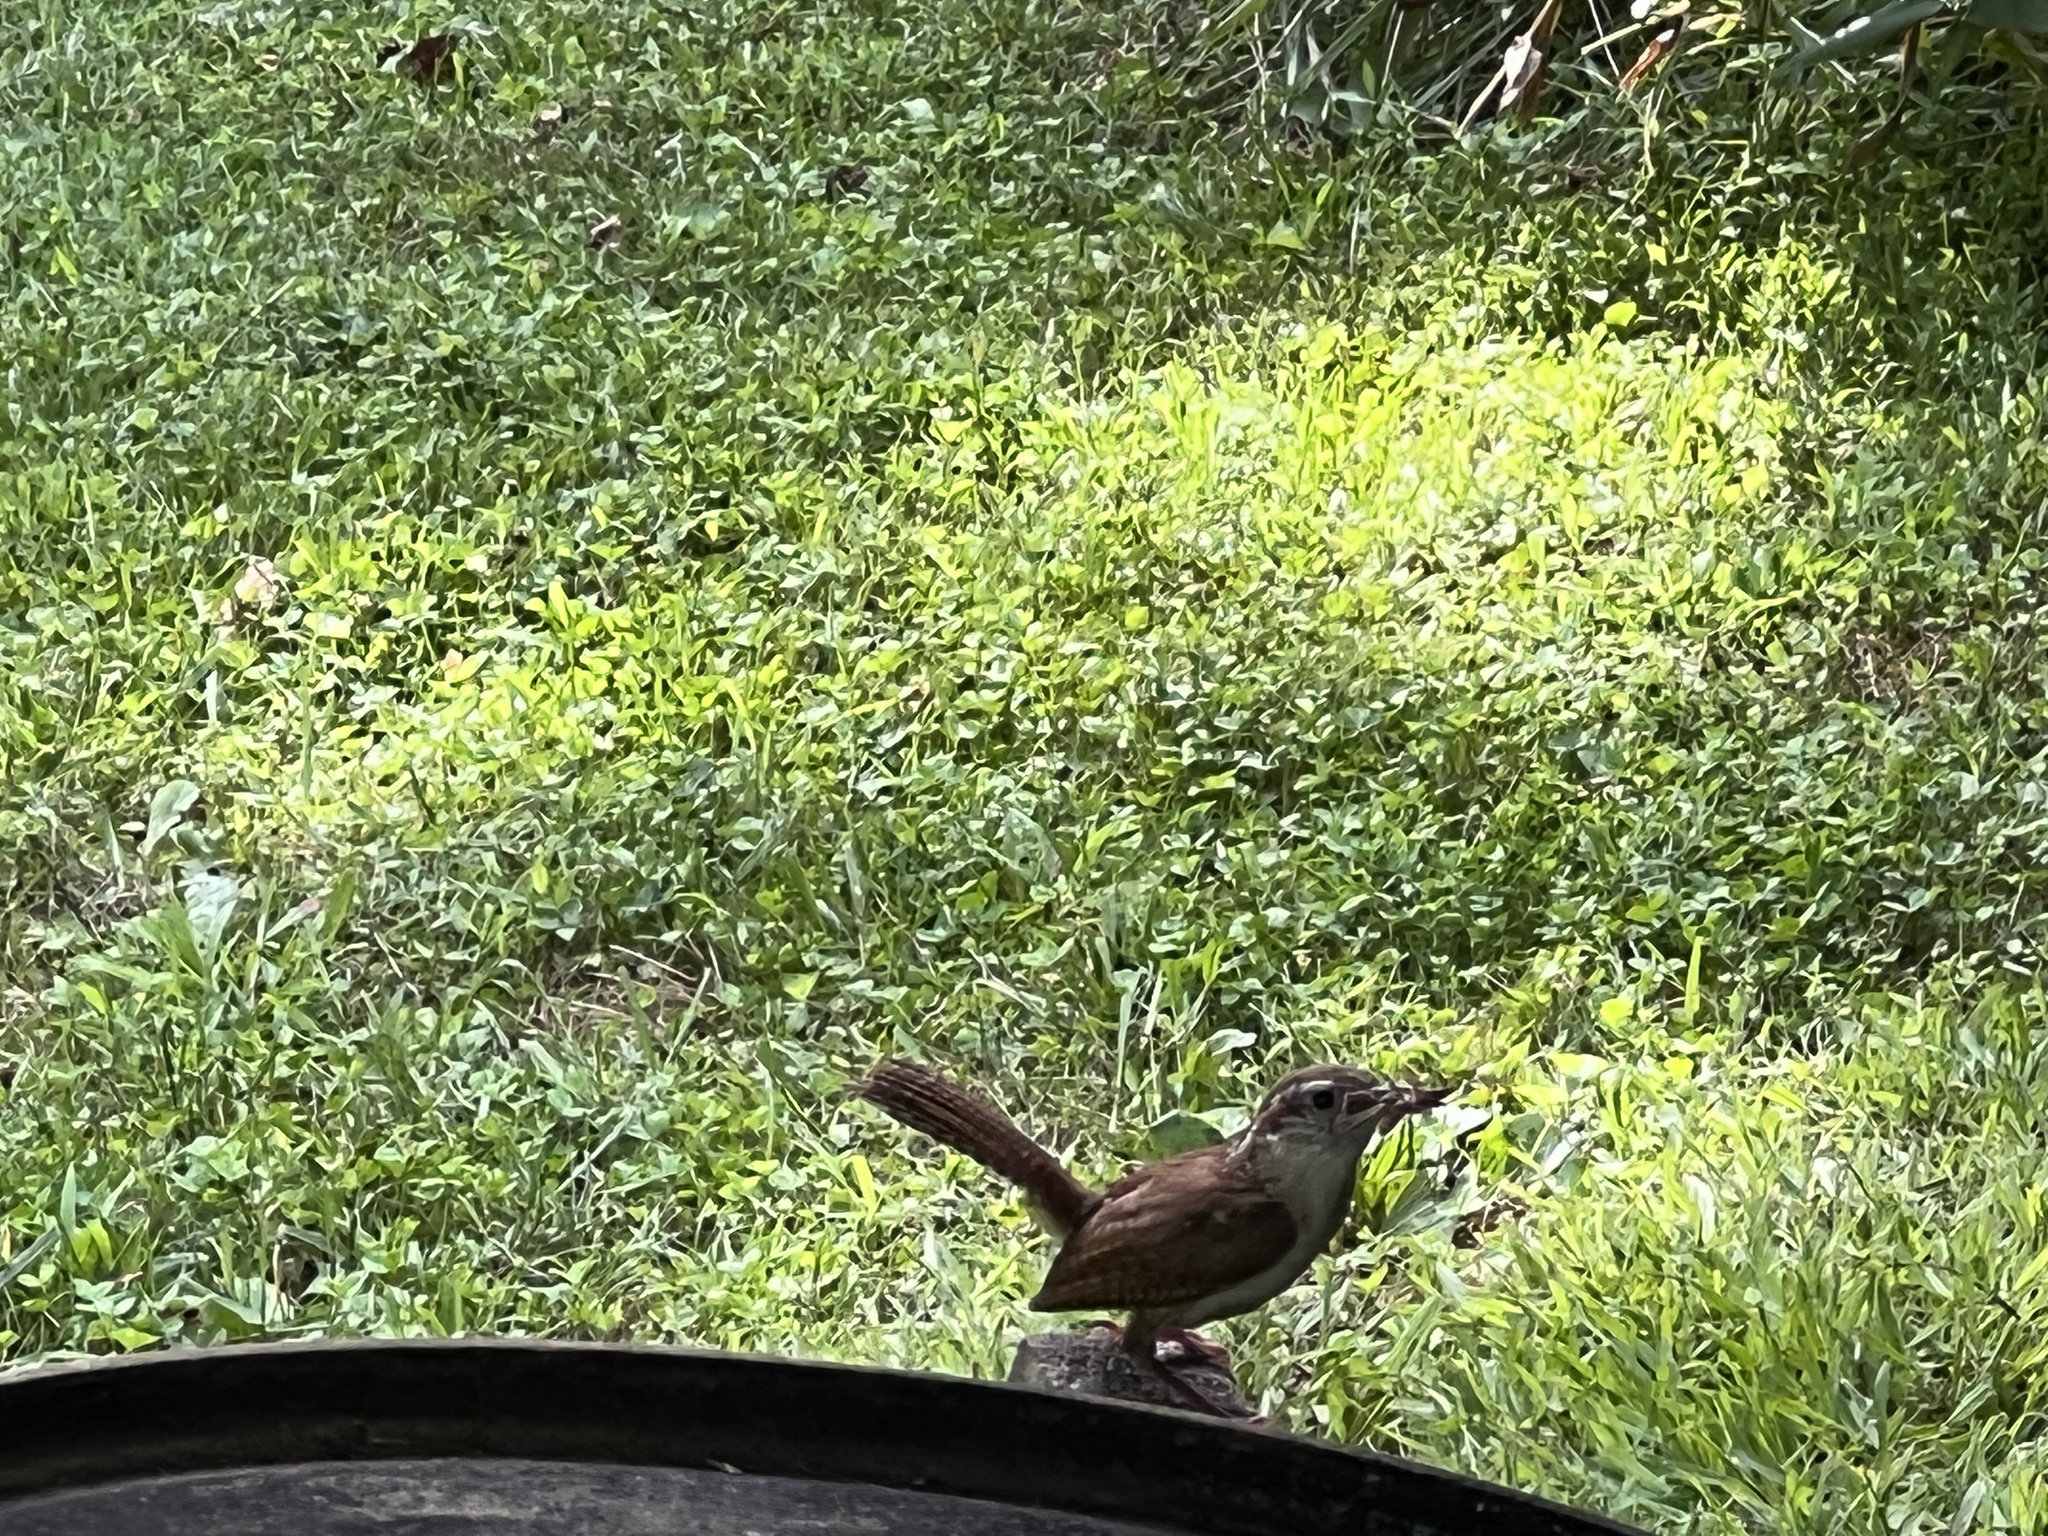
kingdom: Animalia
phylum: Chordata
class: Aves
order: Passeriformes
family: Troglodytidae
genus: Thryothorus
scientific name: Thryothorus ludovicianus
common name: Carolina wren
